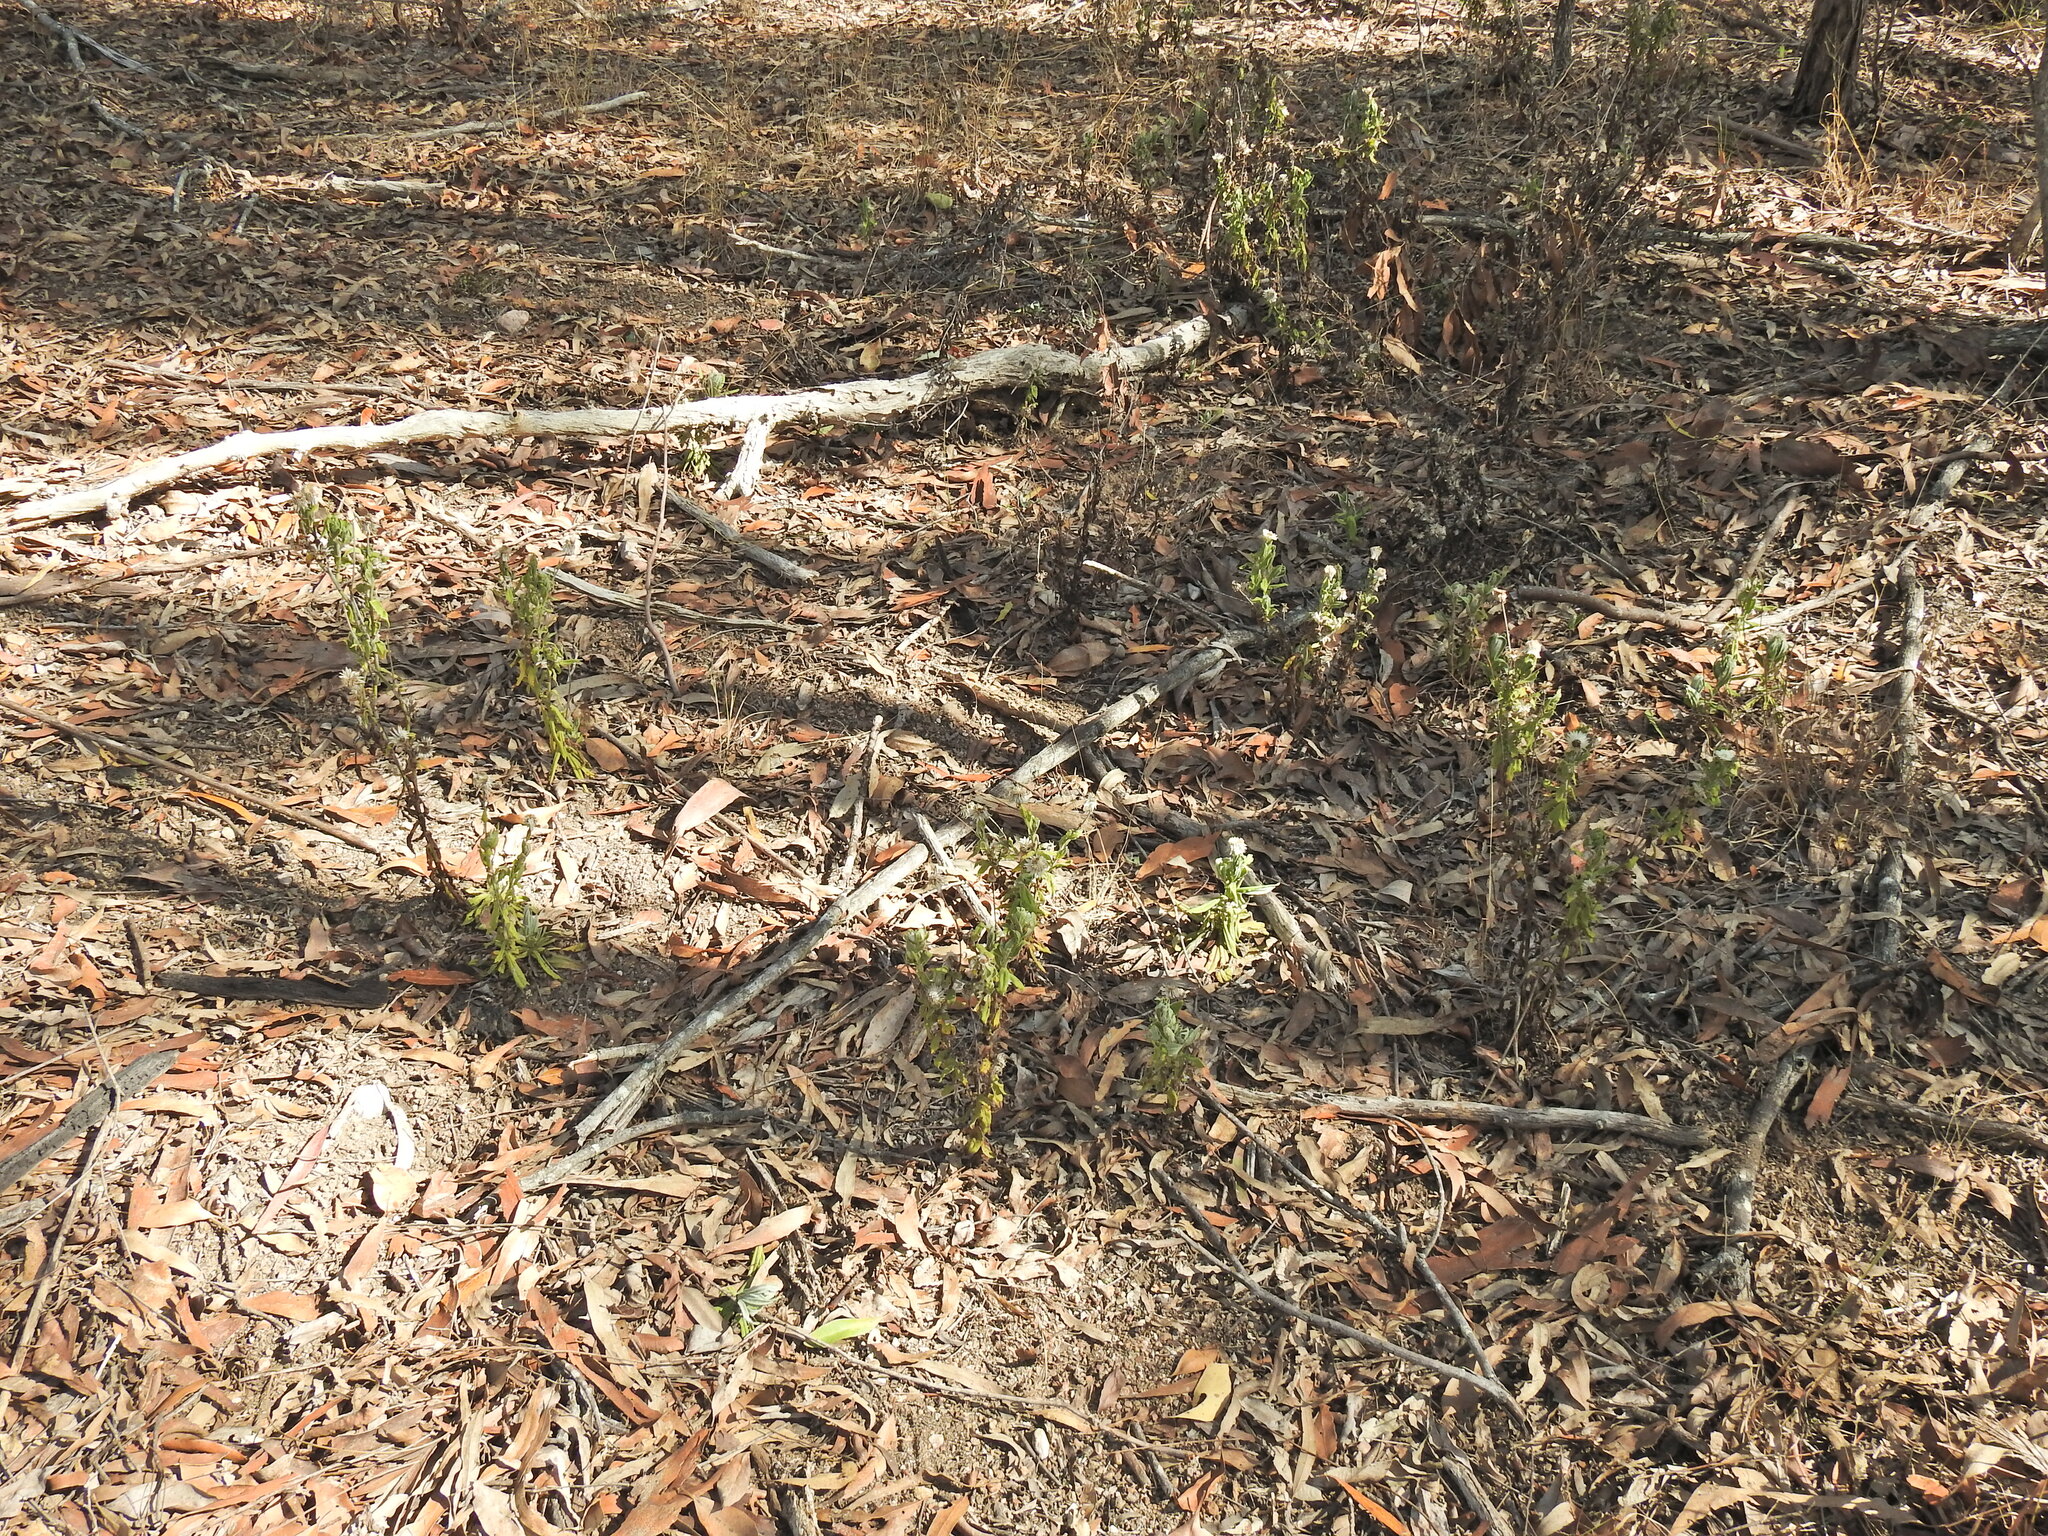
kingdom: Plantae
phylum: Tracheophyta
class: Magnoliopsida
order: Asterales
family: Asteraceae
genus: Coronidium
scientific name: Coronidium lanuginosum
